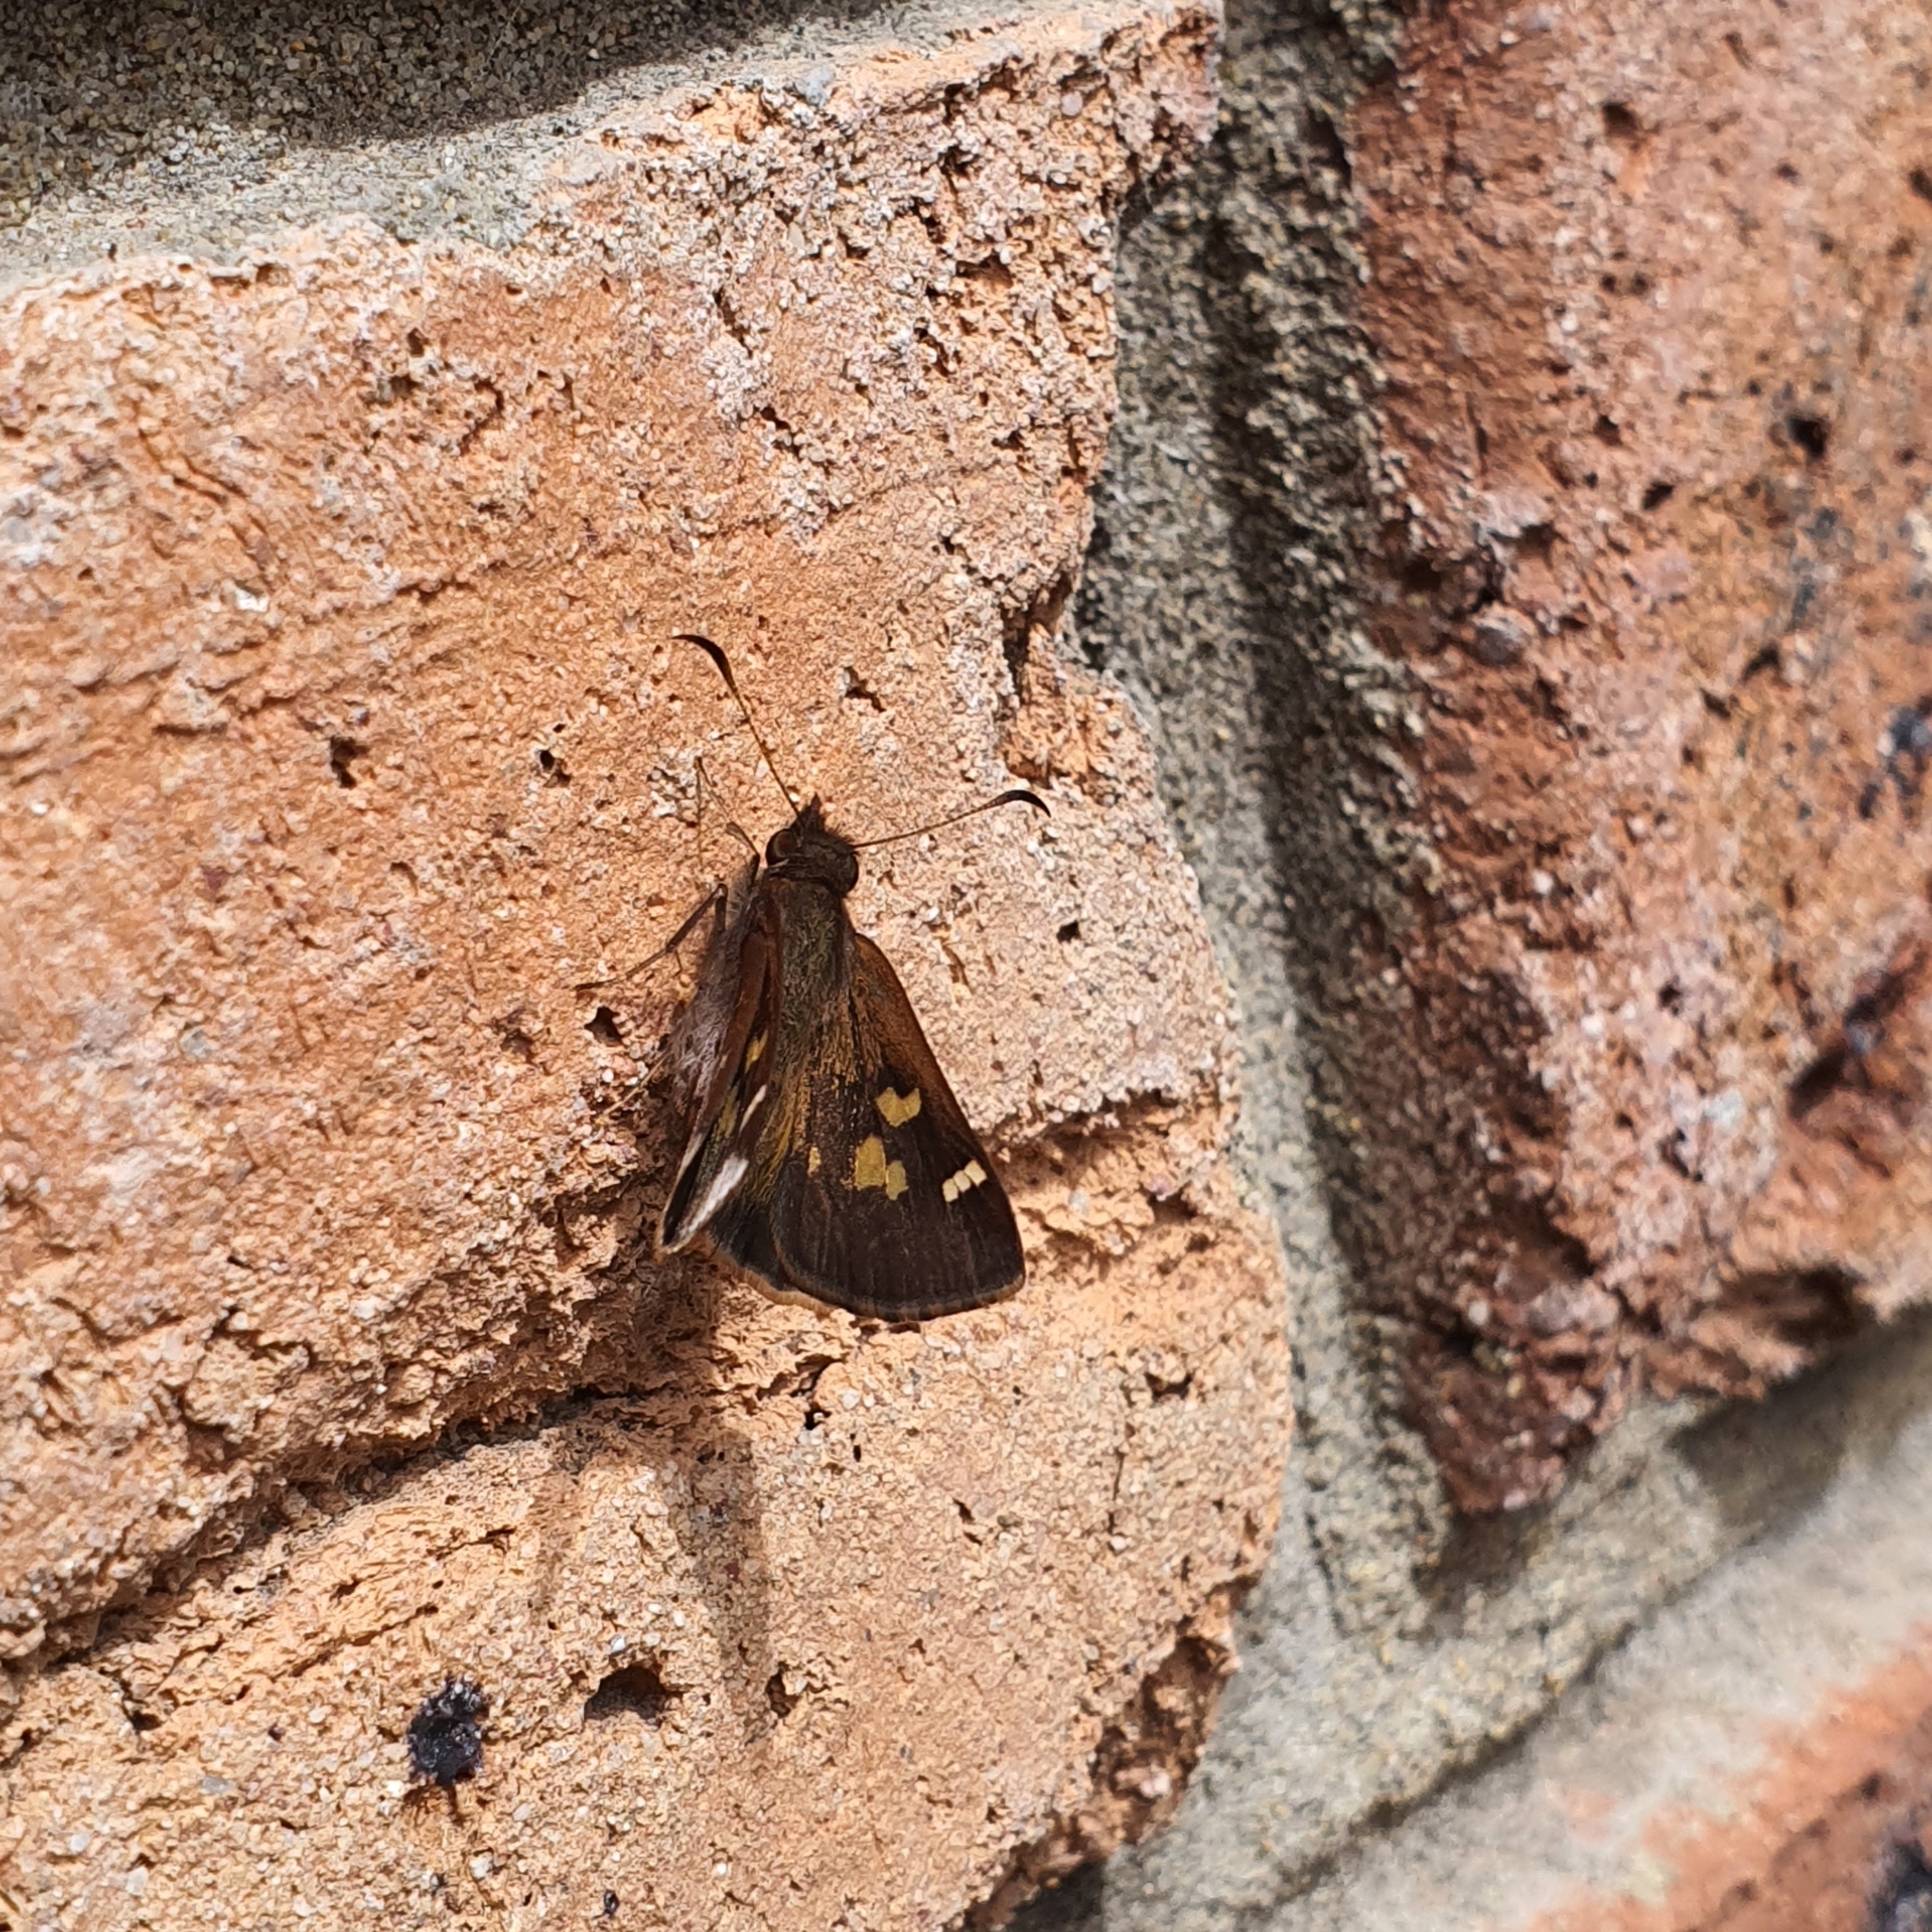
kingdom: Animalia
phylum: Arthropoda
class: Insecta
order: Lepidoptera
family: Hesperiidae
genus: Toxidia
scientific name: Toxidia doubledayi
